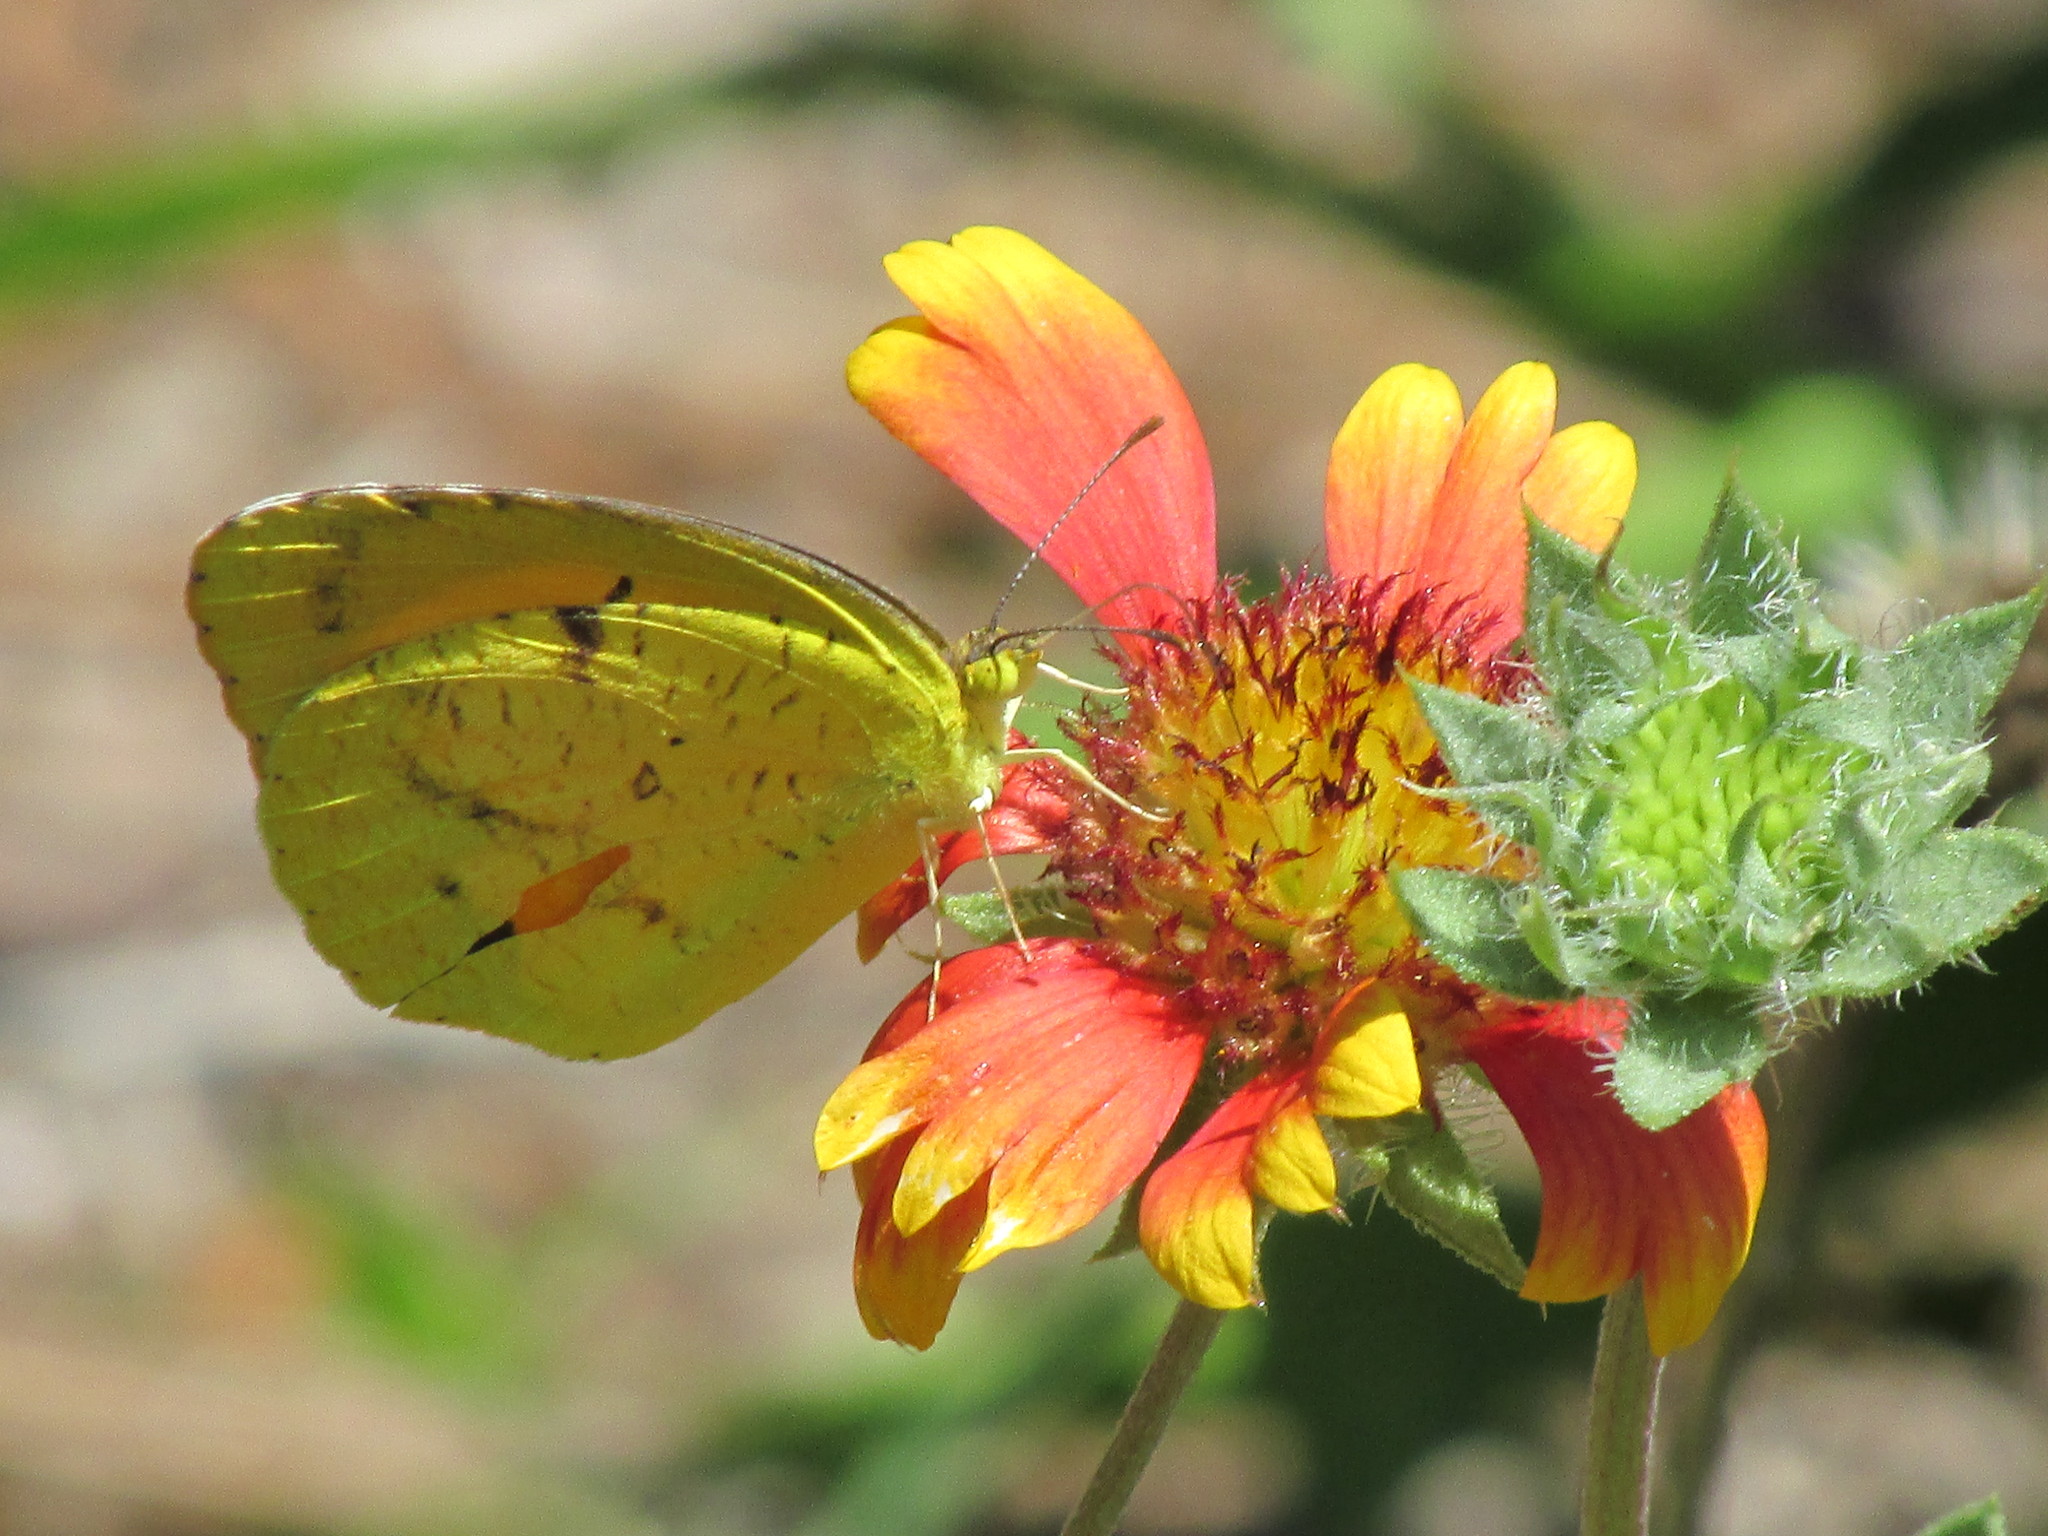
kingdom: Animalia
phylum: Arthropoda
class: Insecta
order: Lepidoptera
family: Pieridae
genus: Abaeis
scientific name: Abaeis nicippe
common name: Sleepy orange
